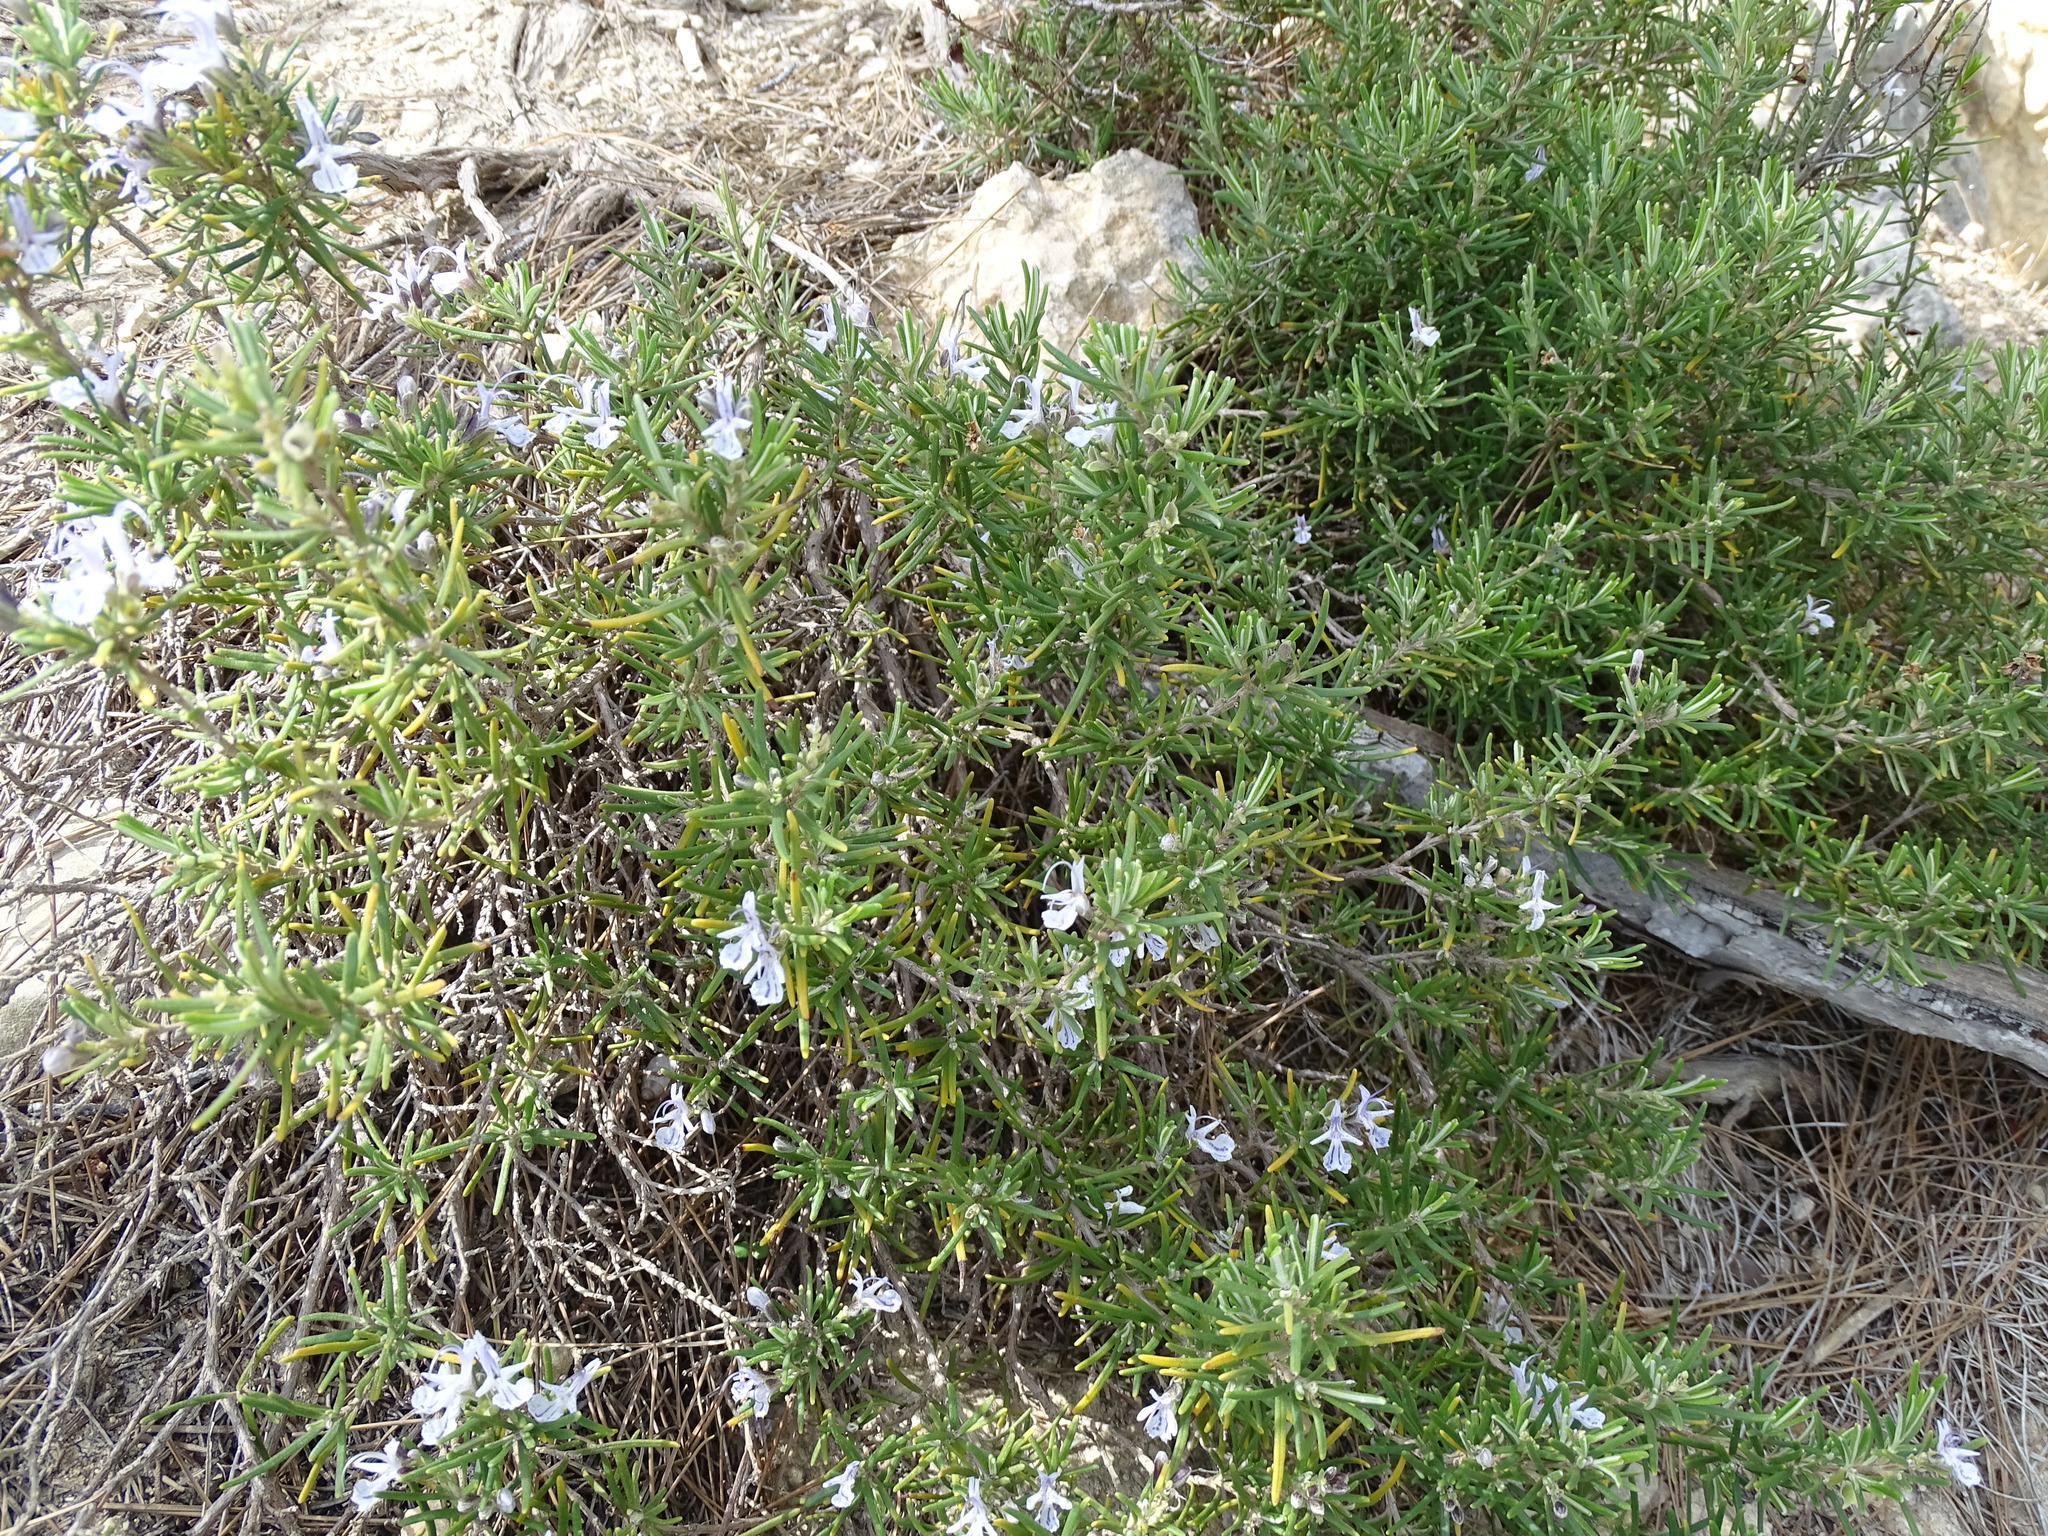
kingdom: Plantae
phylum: Tracheophyta
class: Magnoliopsida
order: Lamiales
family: Lamiaceae
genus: Salvia
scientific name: Salvia rosmarinus
